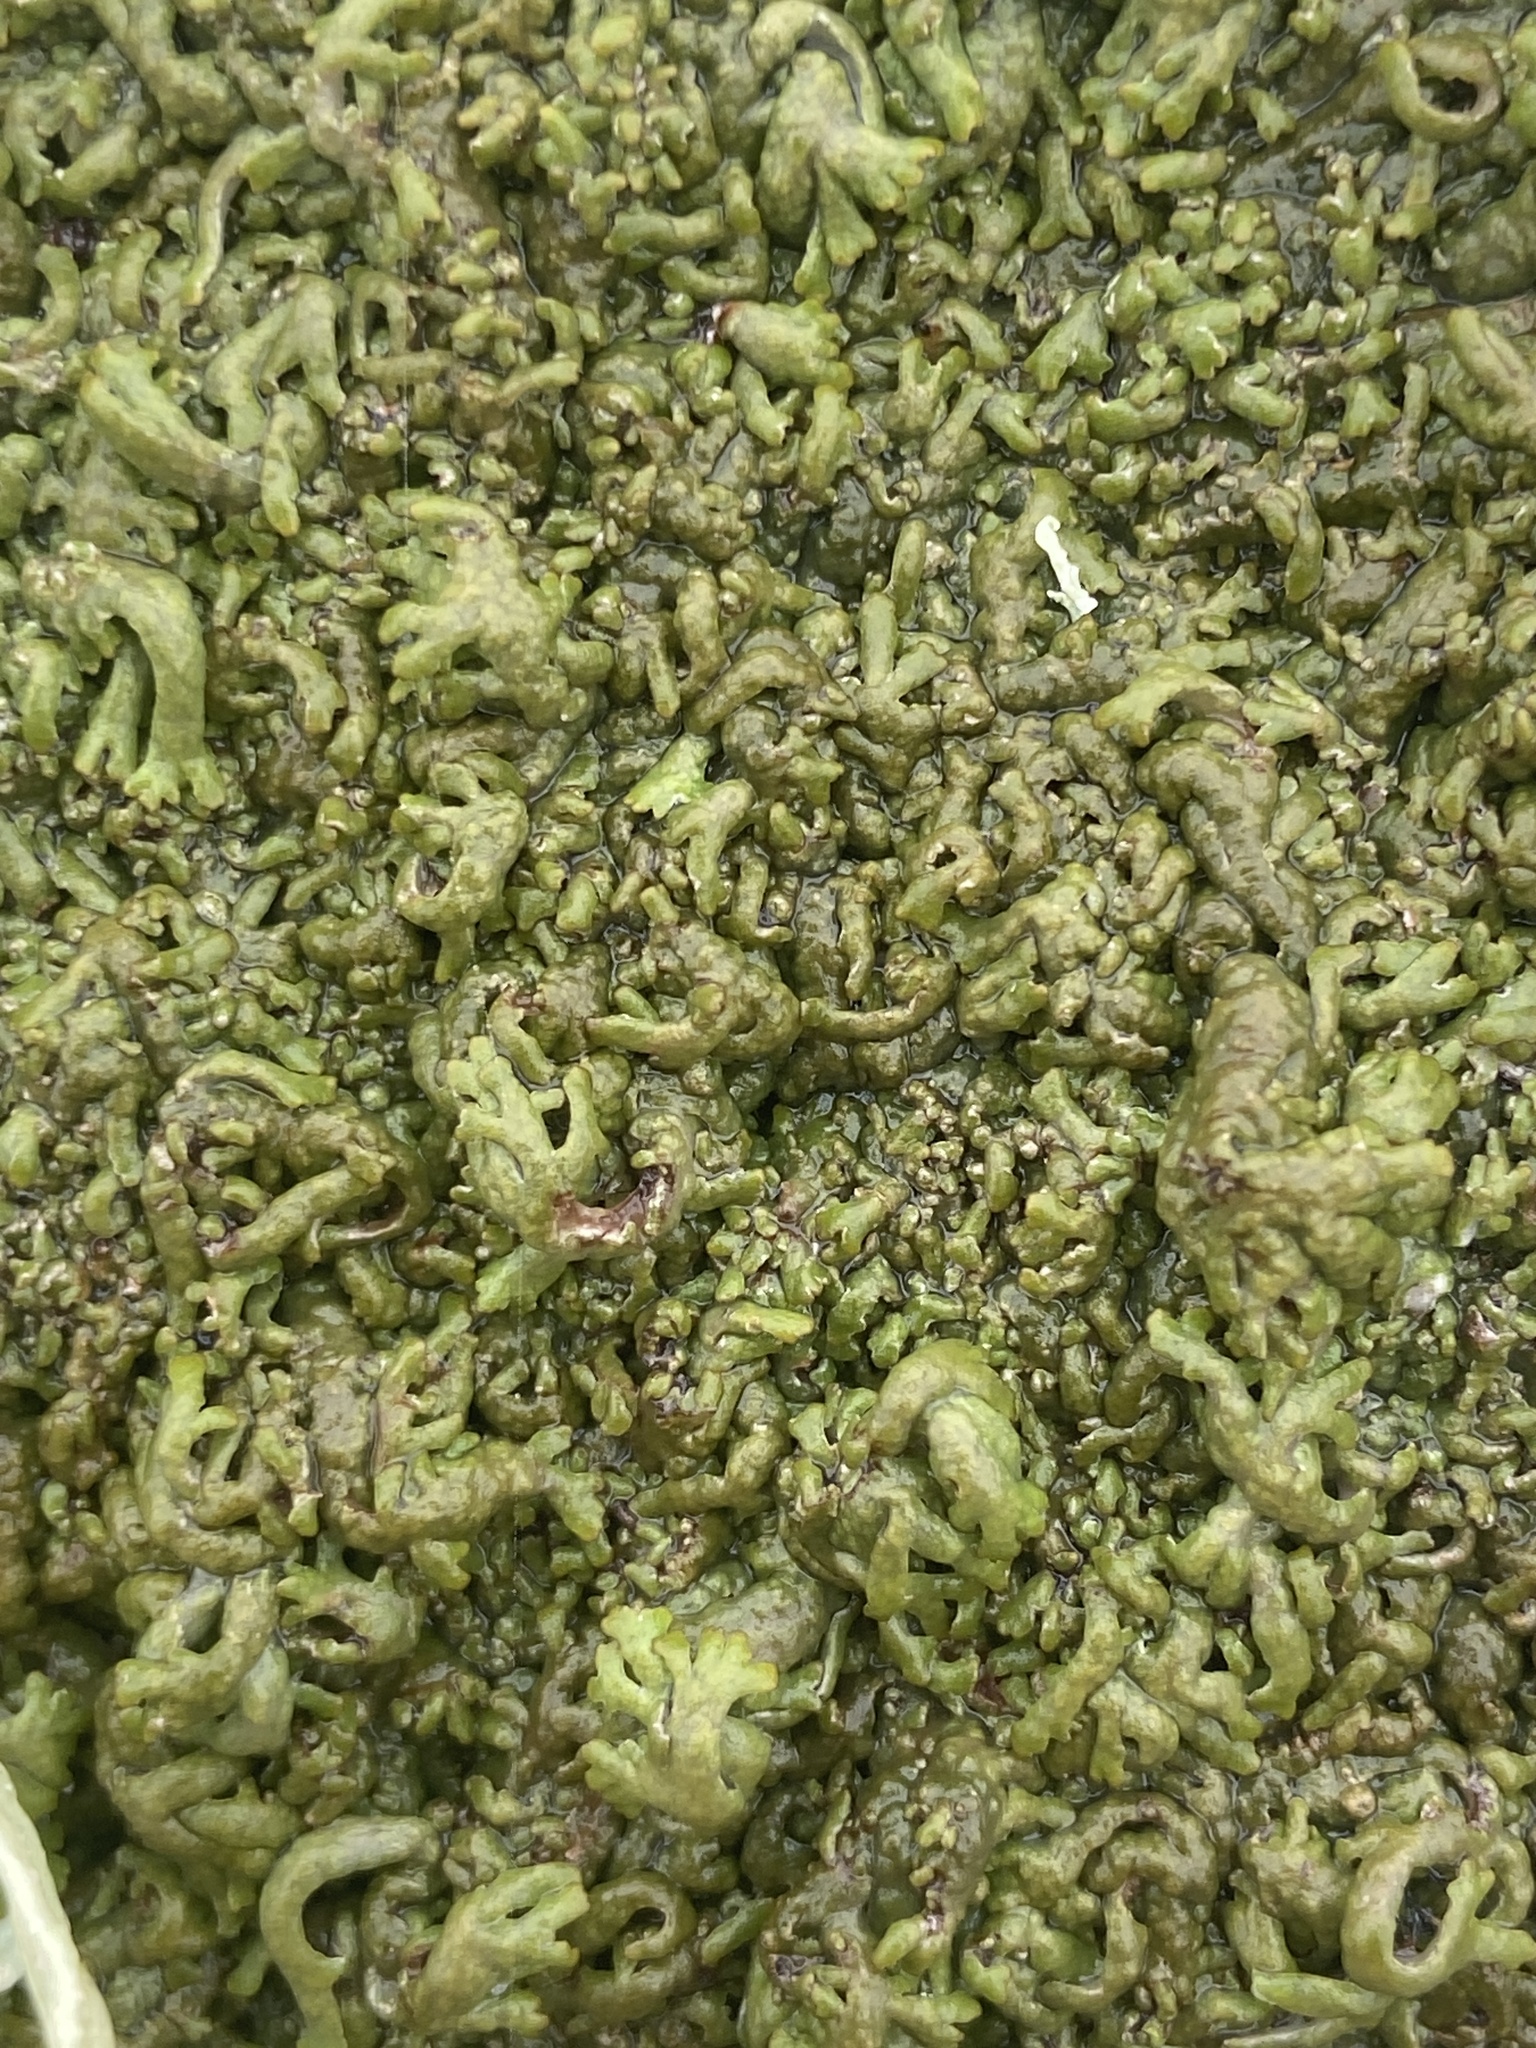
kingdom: Fungi
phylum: Ascomycota
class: Lecanoromycetes
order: Caliciales
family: Physciaceae
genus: Kurokawia
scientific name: Kurokawia runcinata
